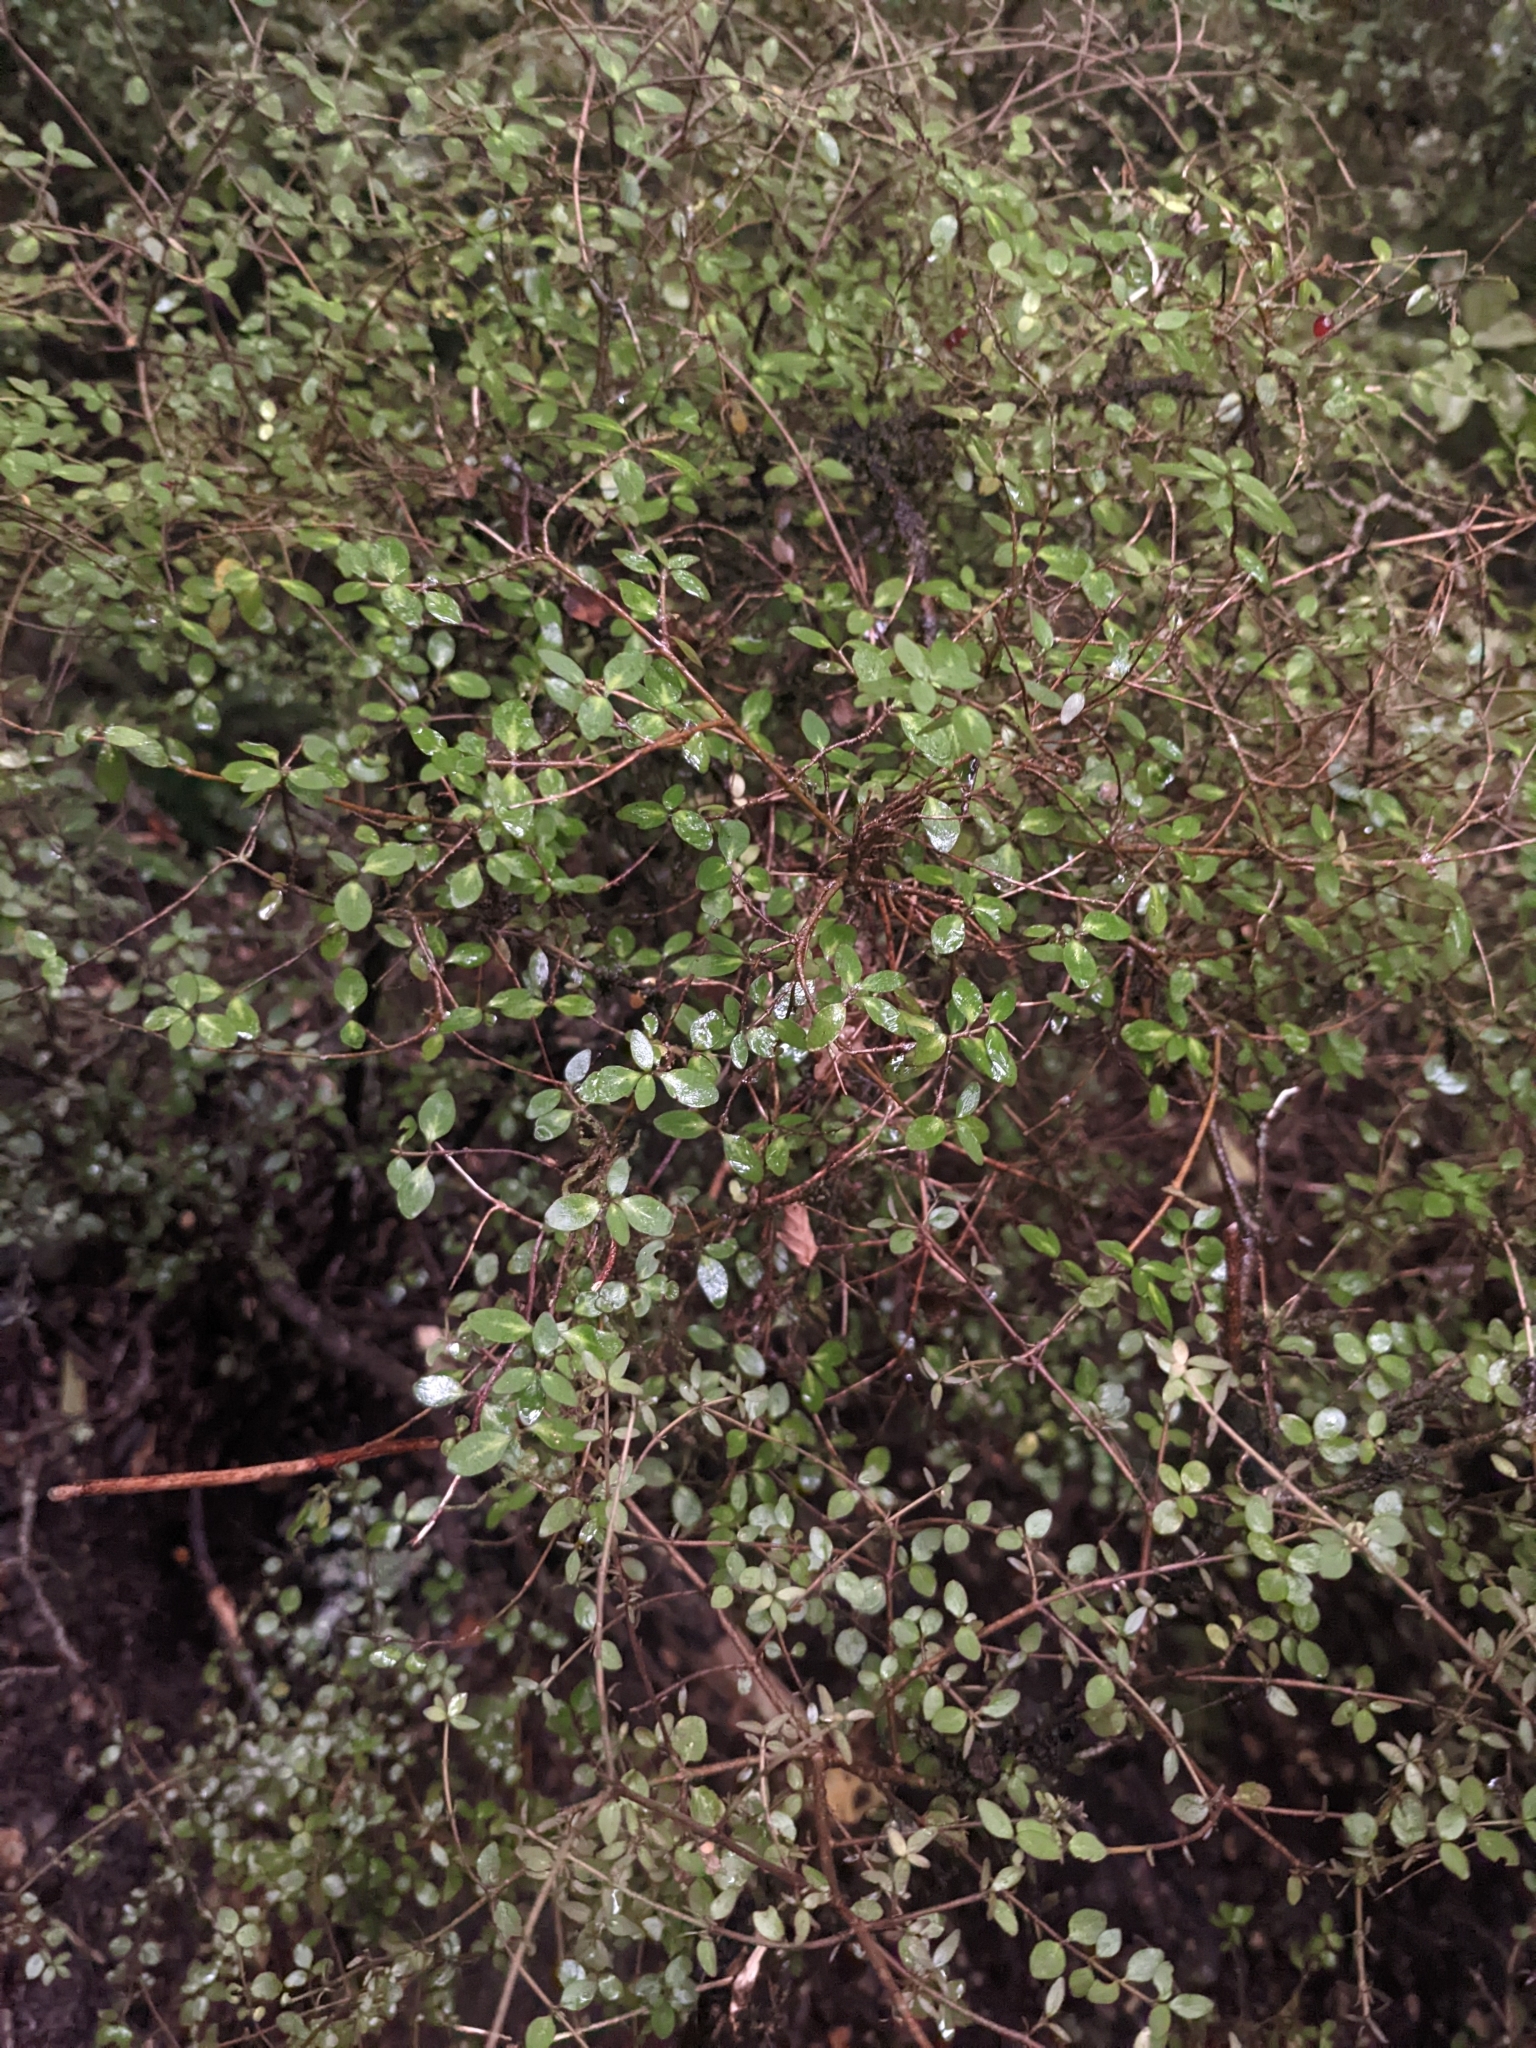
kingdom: Plantae
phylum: Tracheophyta
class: Magnoliopsida
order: Gentianales
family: Rubiaceae
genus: Coprosma
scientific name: Coprosma rhamnoides
